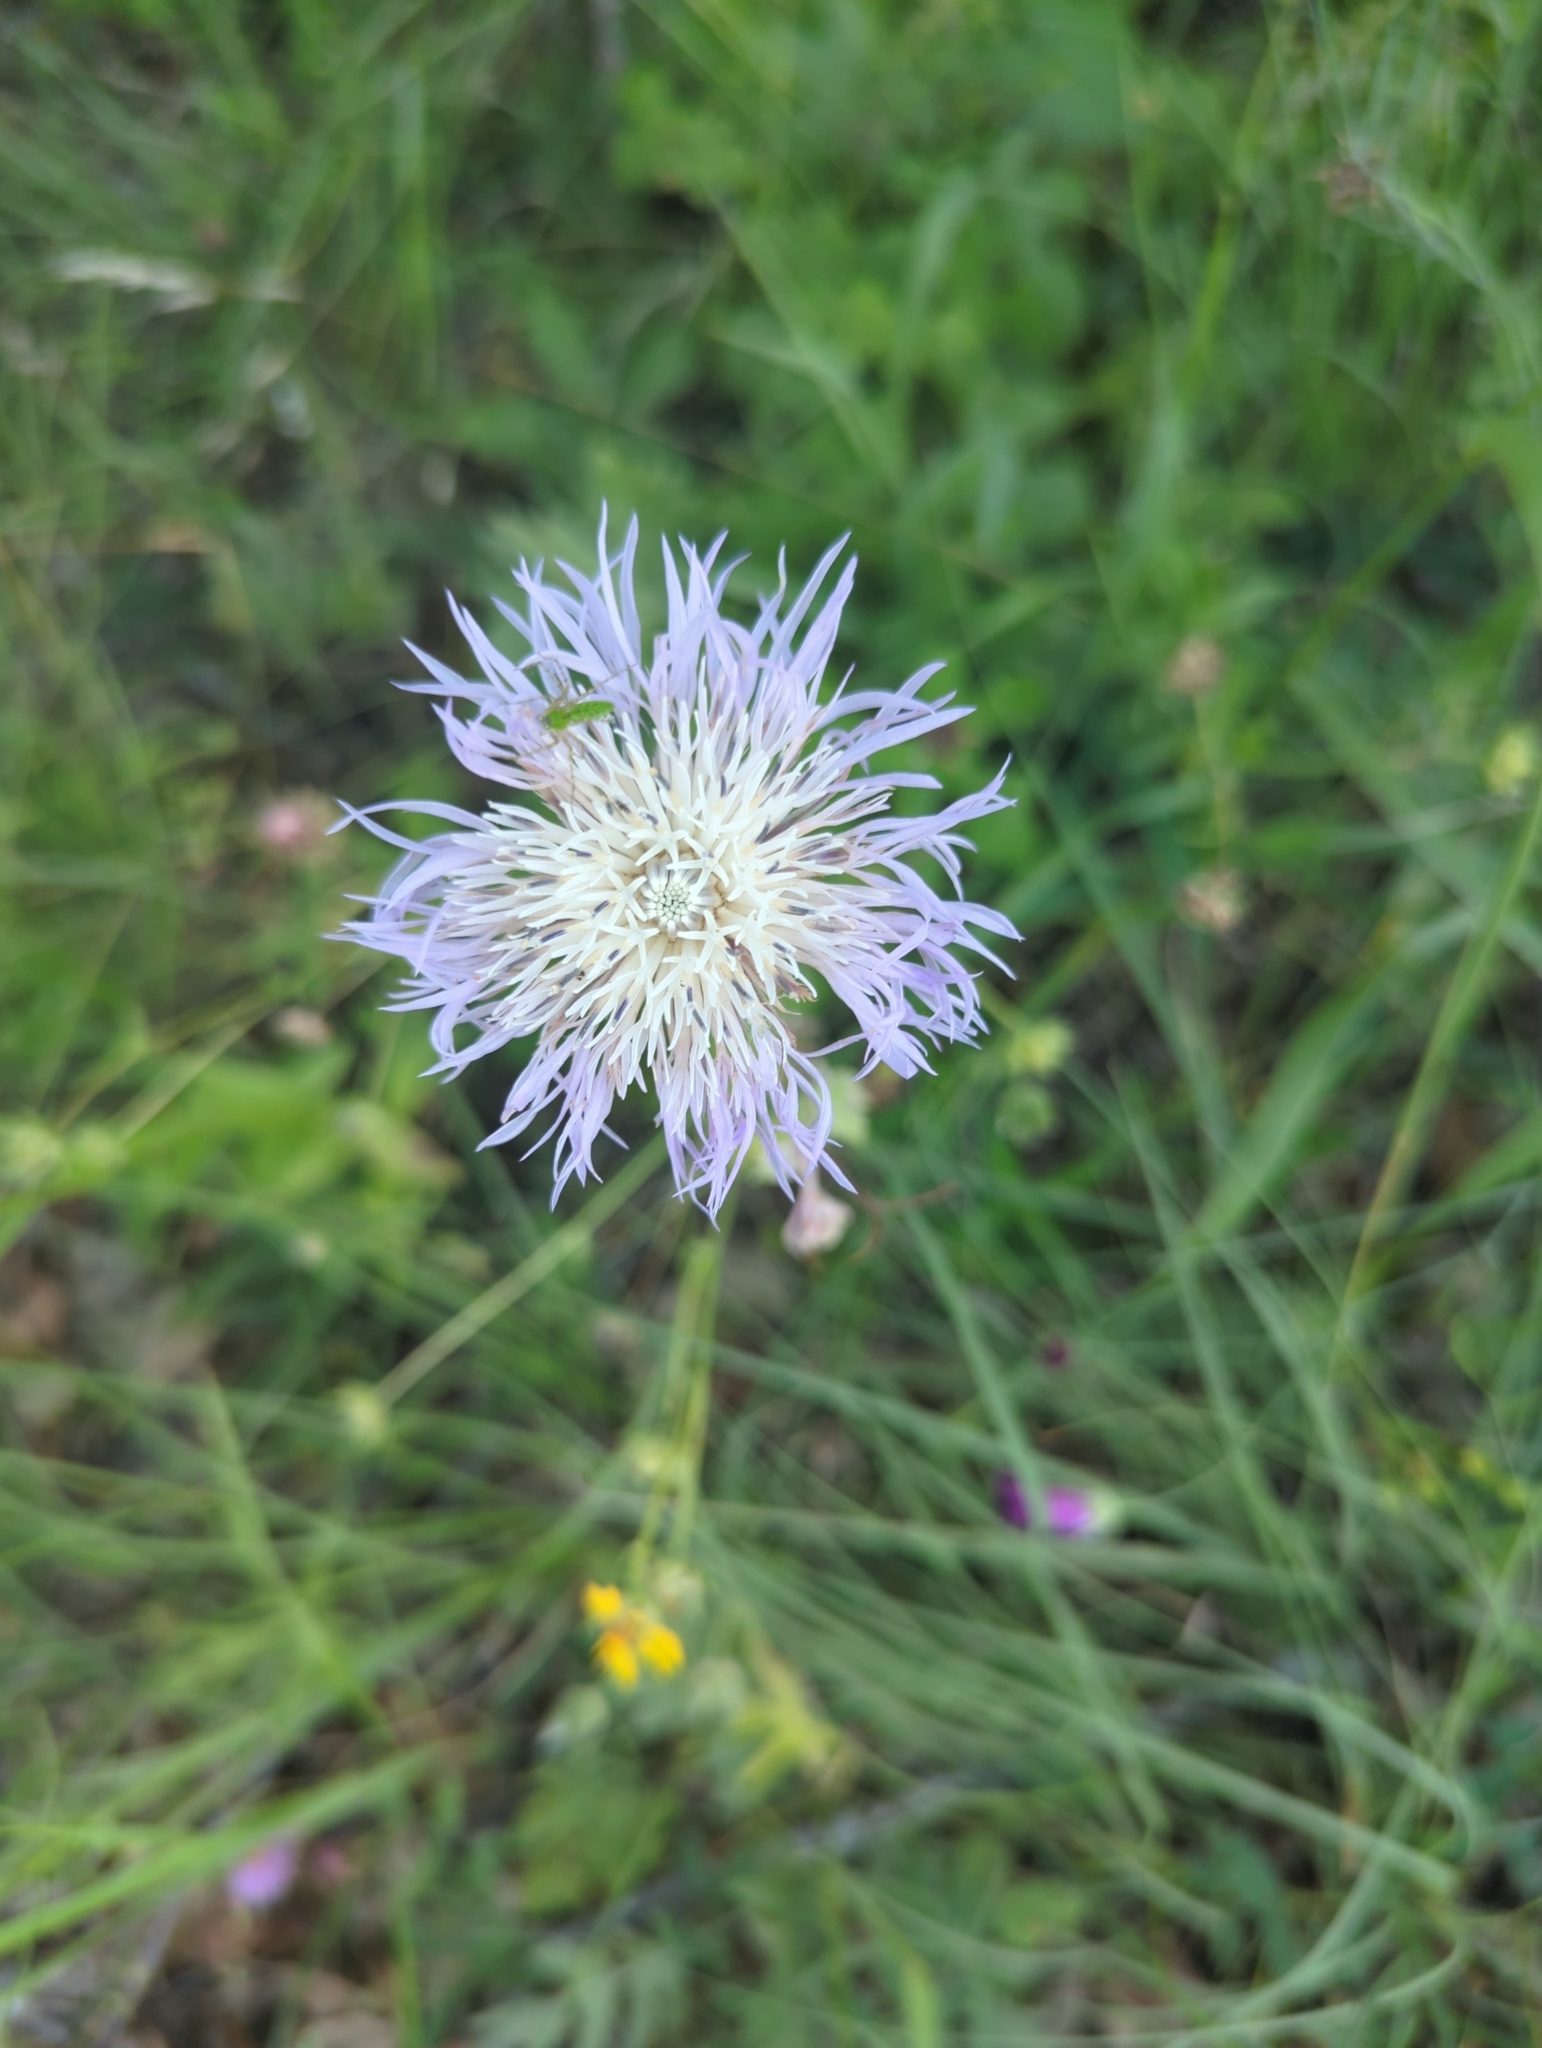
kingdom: Plantae
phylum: Tracheophyta
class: Magnoliopsida
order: Asterales
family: Asteraceae
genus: Plectocephalus
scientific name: Plectocephalus americanus
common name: American basket-flower
